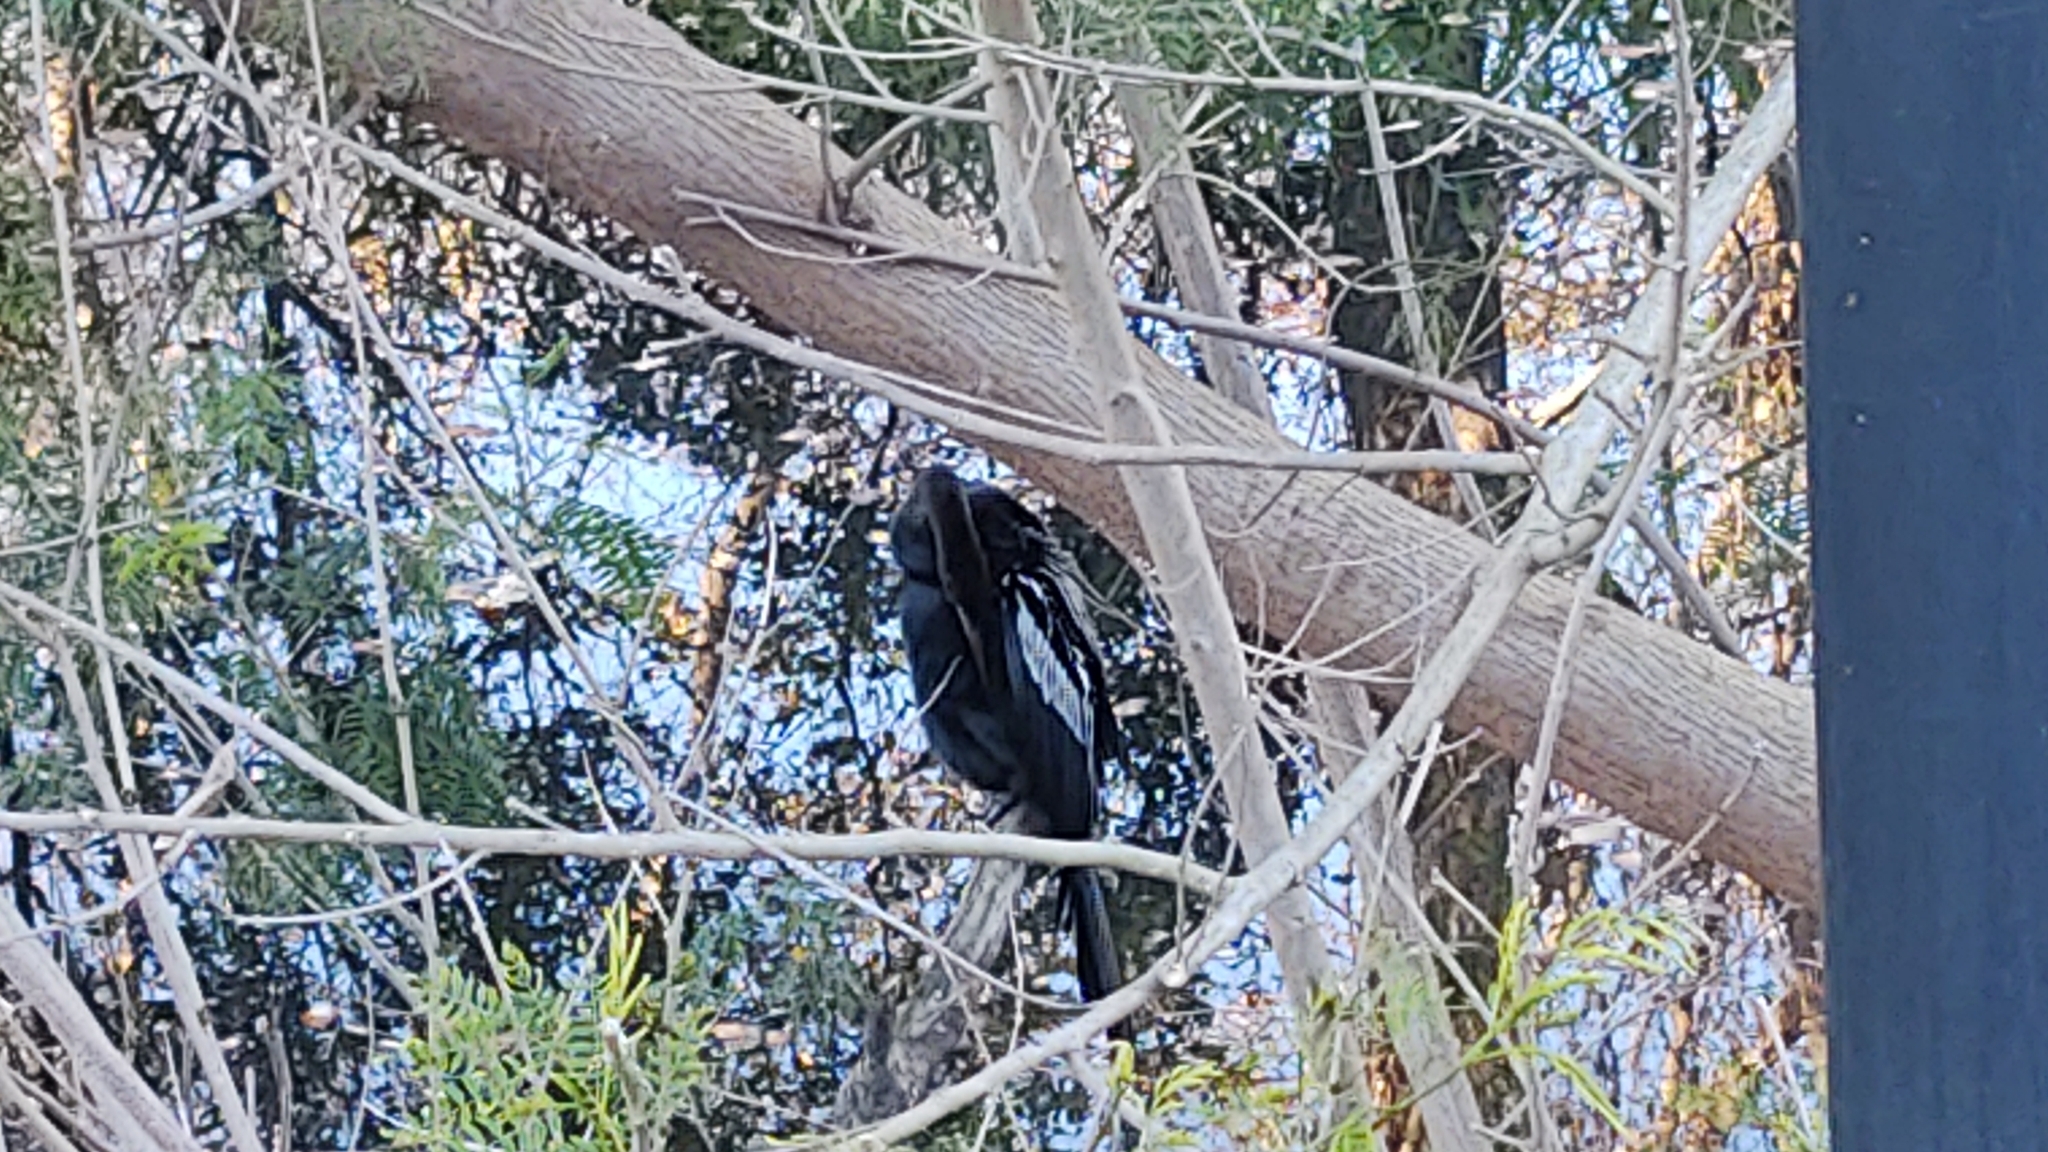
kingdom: Animalia
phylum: Chordata
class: Aves
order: Suliformes
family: Anhingidae
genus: Anhinga
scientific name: Anhinga anhinga
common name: Anhinga
